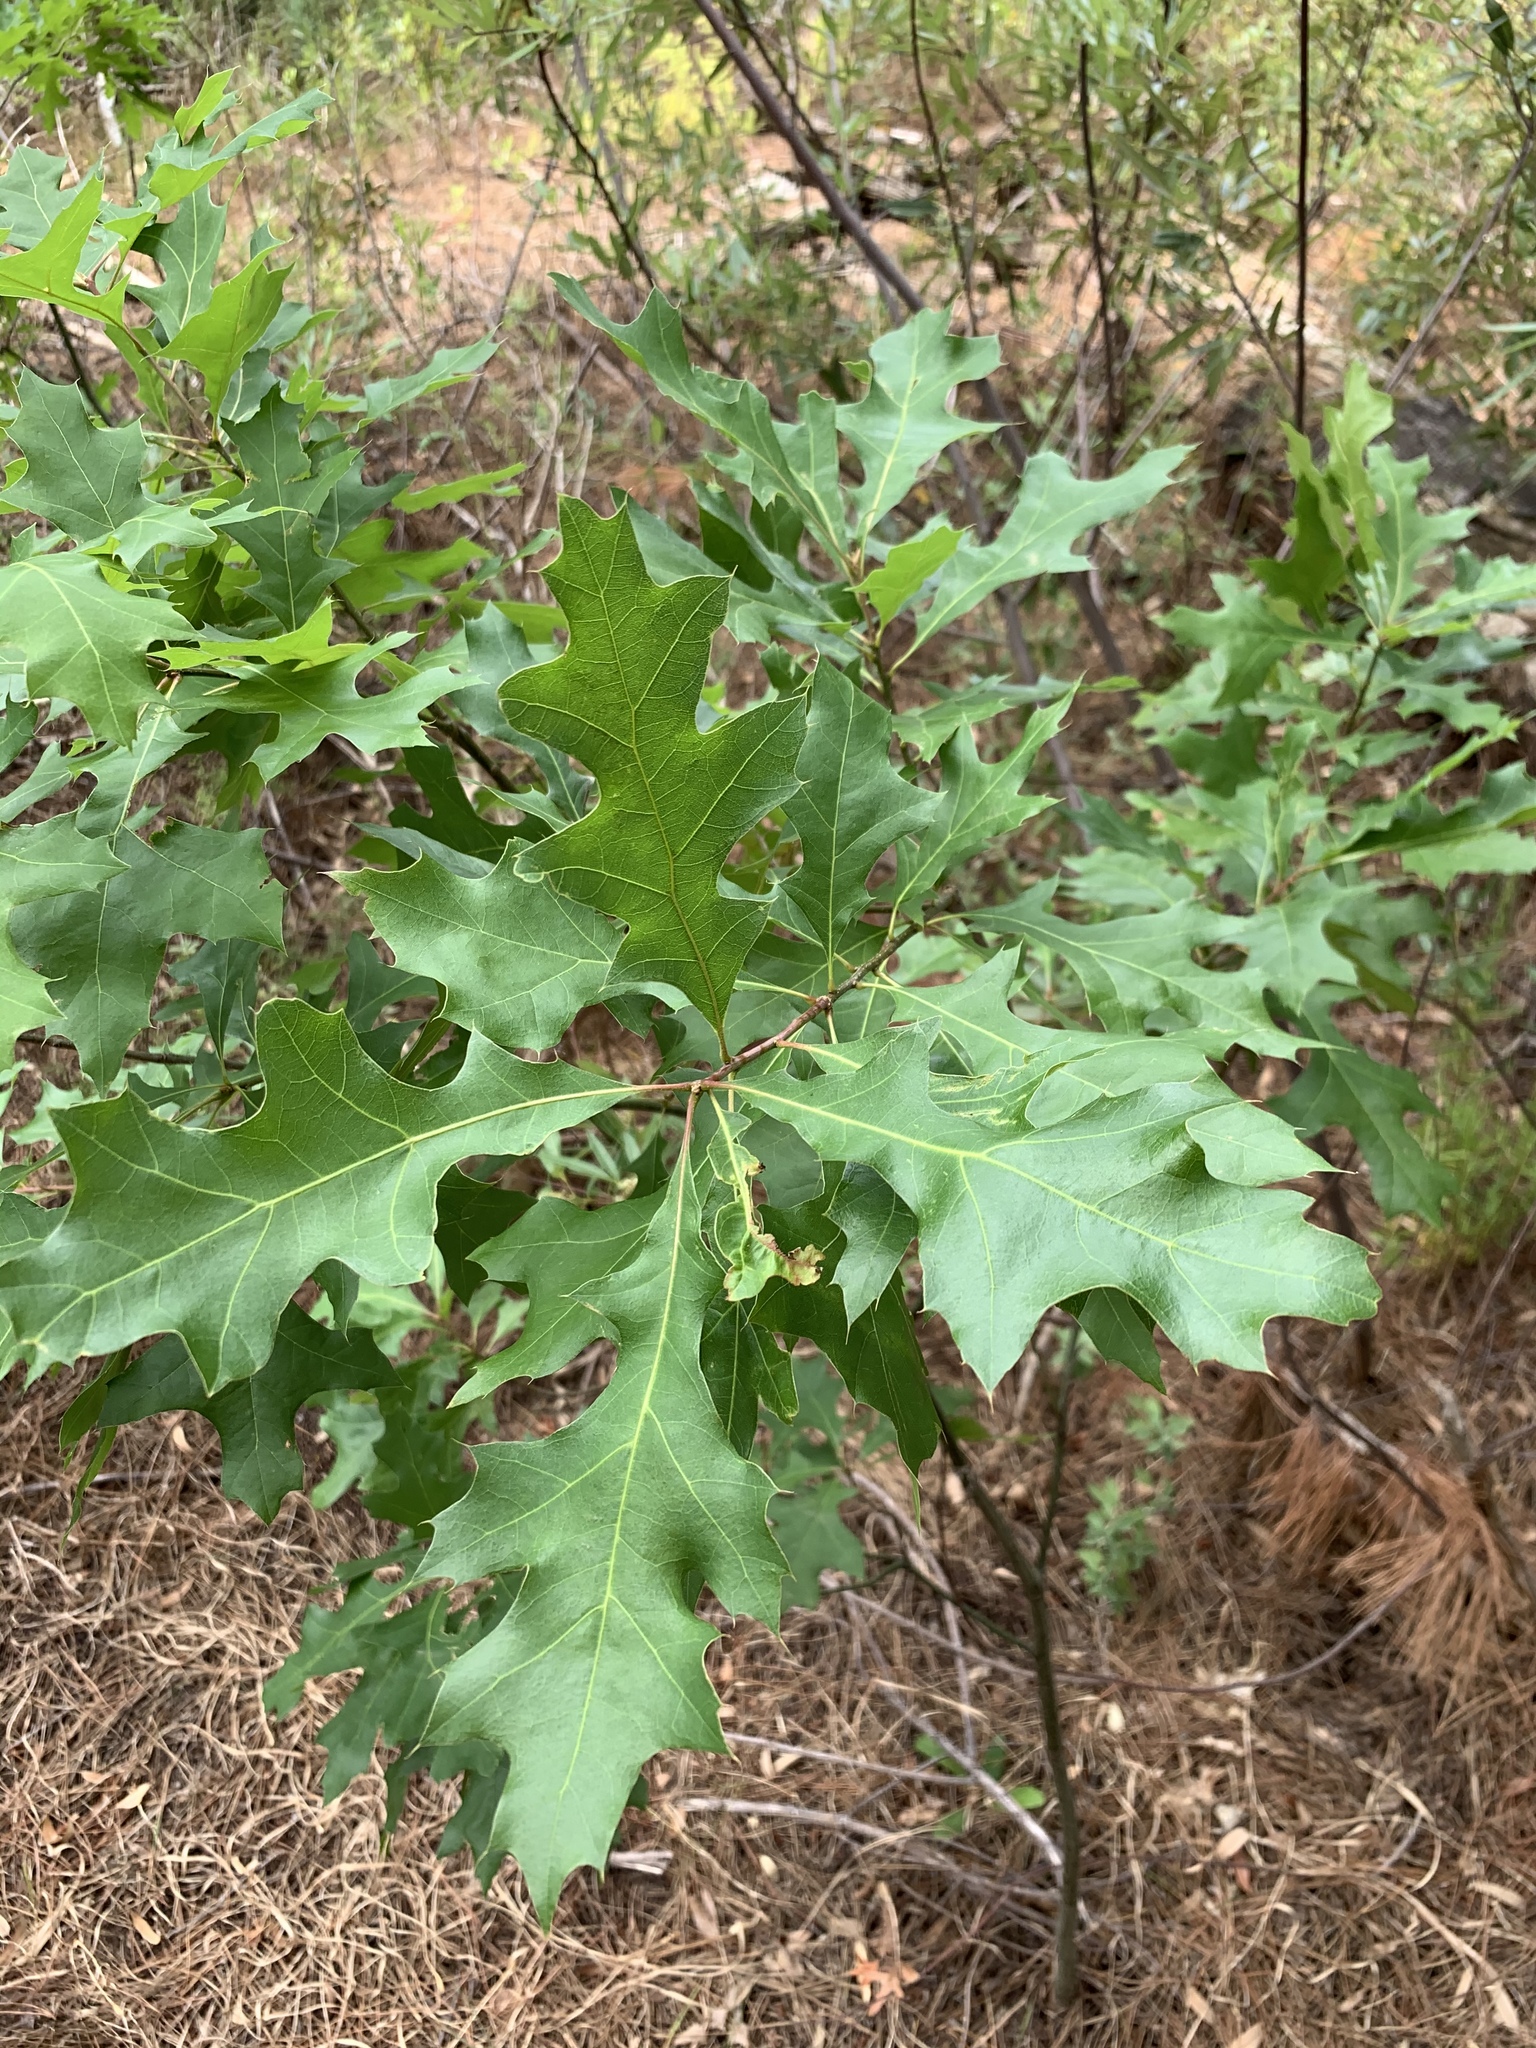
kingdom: Plantae
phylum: Tracheophyta
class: Magnoliopsida
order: Fagales
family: Fagaceae
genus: Quercus
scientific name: Quercus palustris
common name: Pin oak
